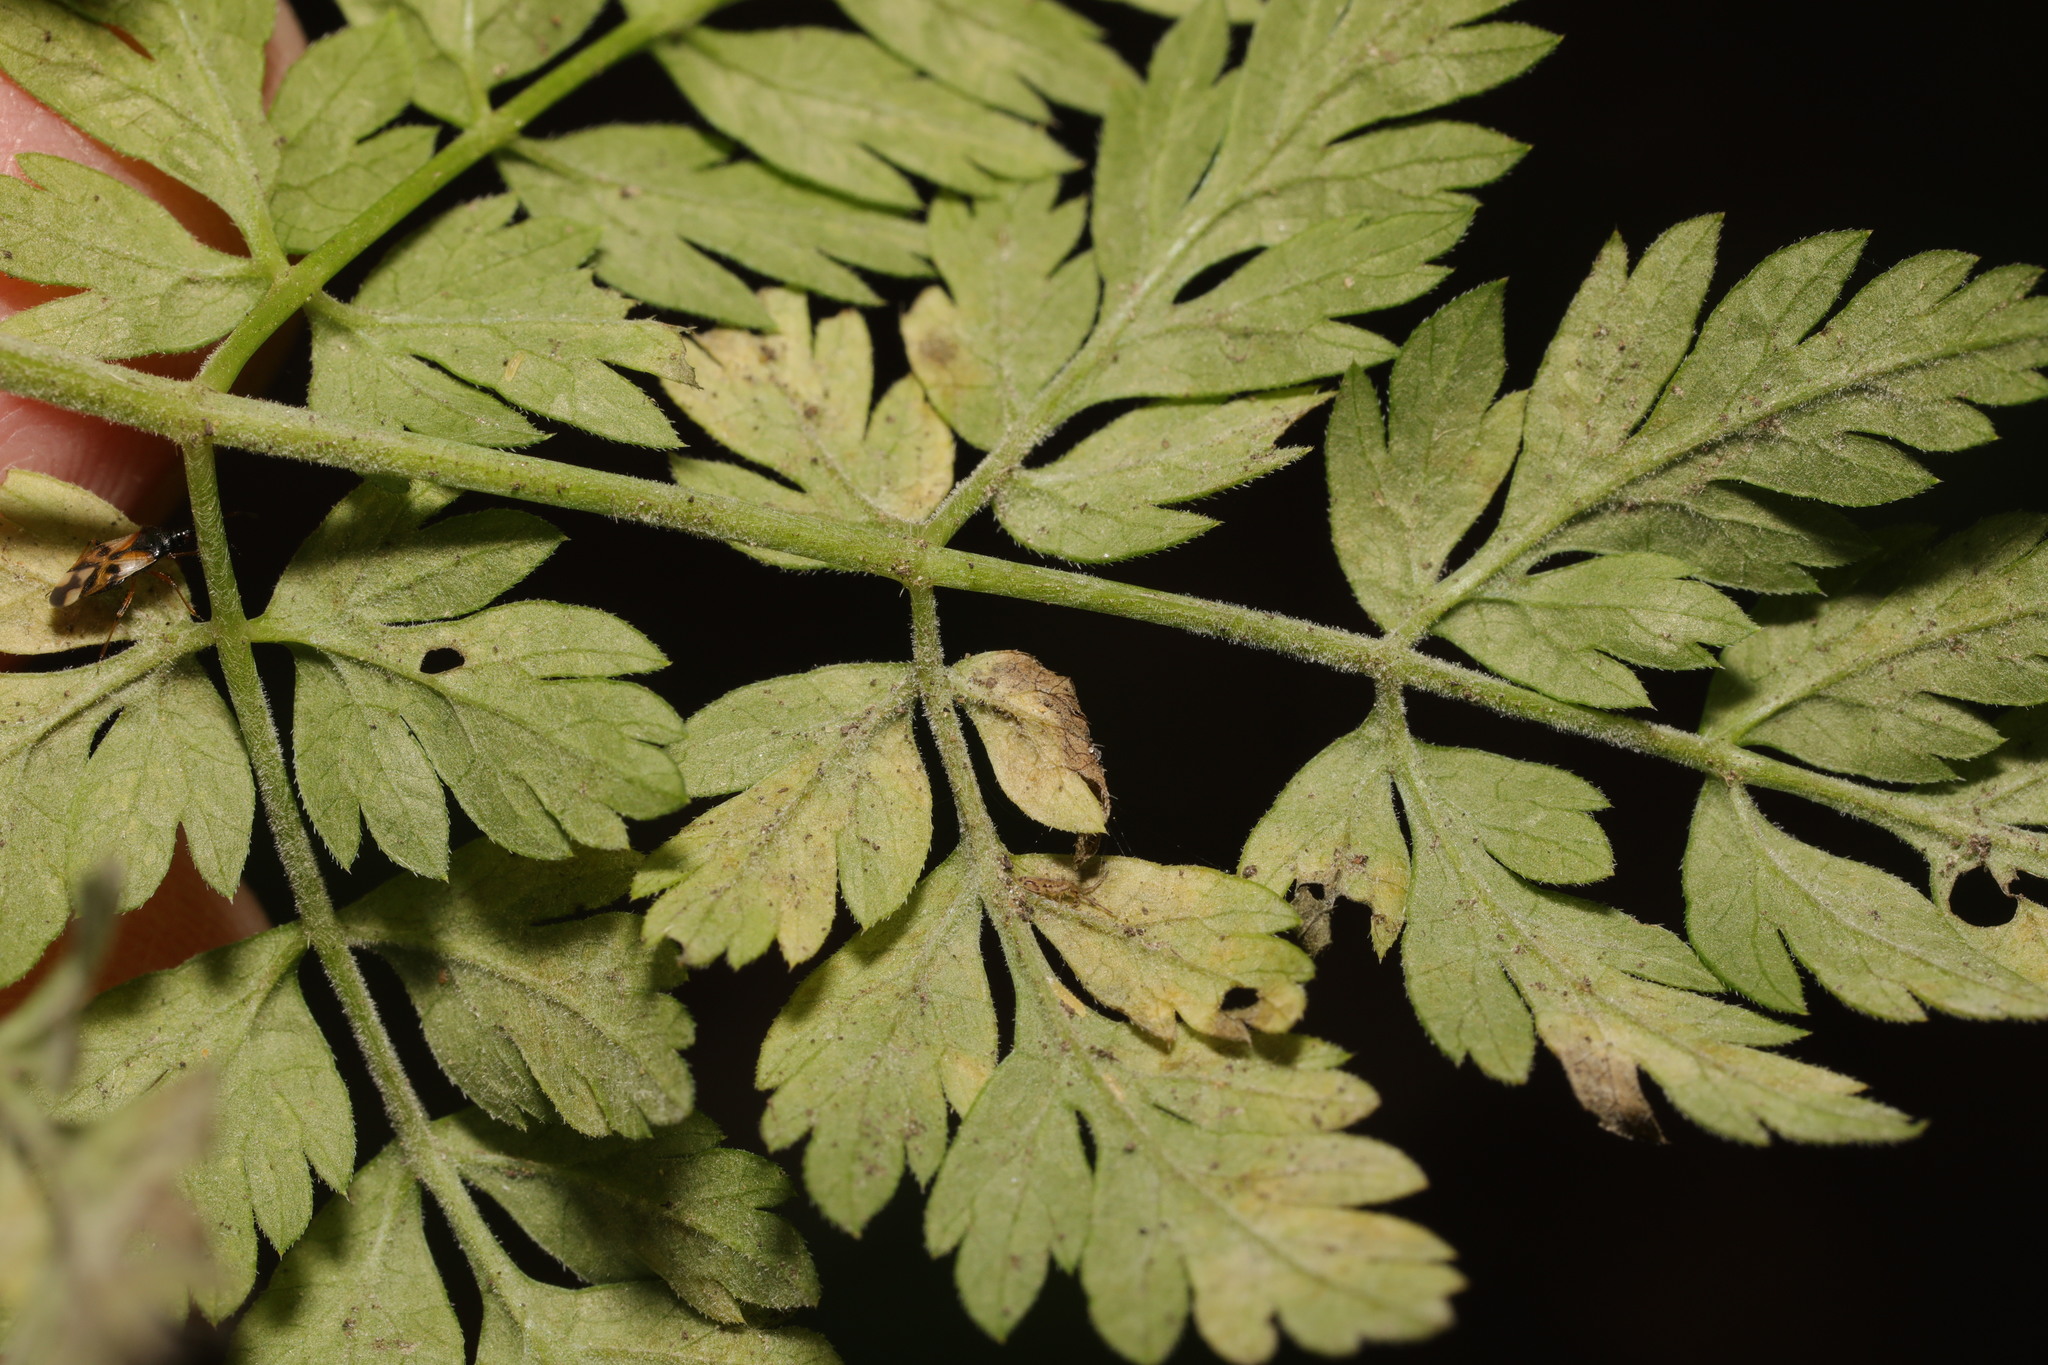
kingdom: Plantae
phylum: Tracheophyta
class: Magnoliopsida
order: Apiales
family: Apiaceae
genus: Anthriscus
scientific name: Anthriscus sylvestris
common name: Cow parsley
